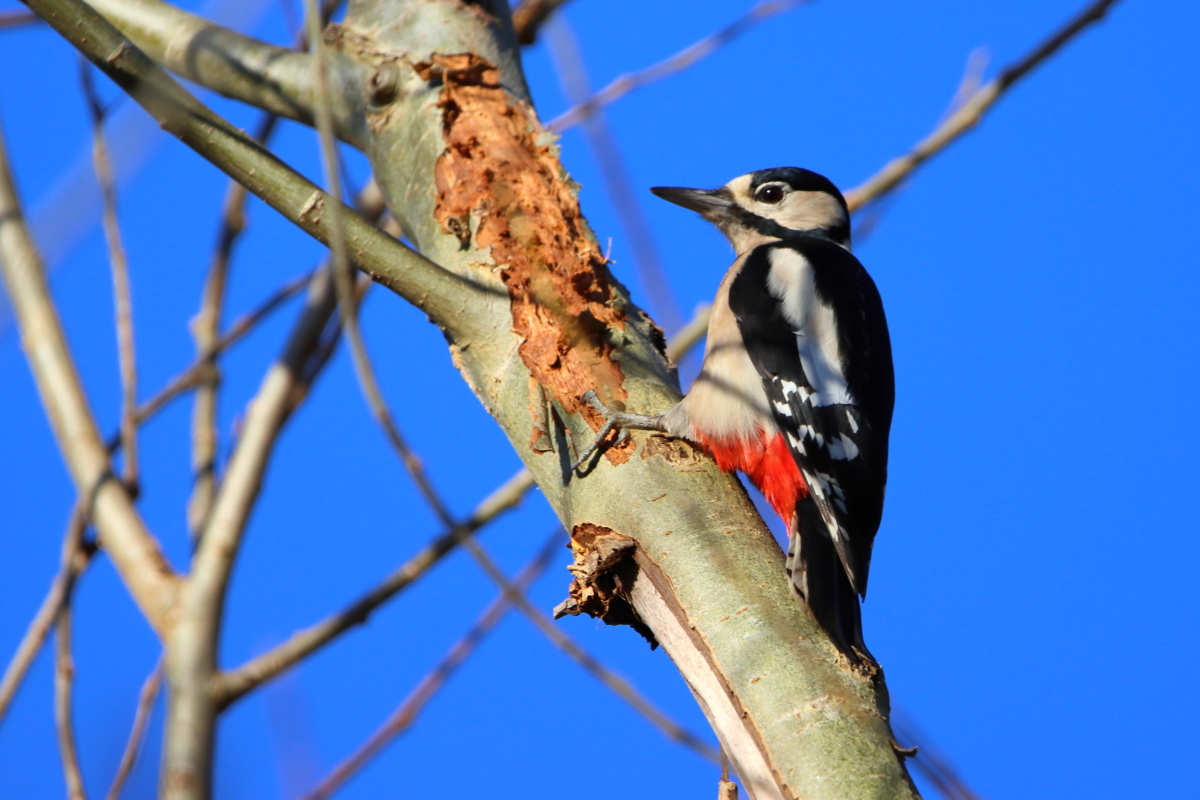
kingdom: Animalia
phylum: Chordata
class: Aves
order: Piciformes
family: Picidae
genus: Dendrocopos
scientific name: Dendrocopos major
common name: Great spotted woodpecker
